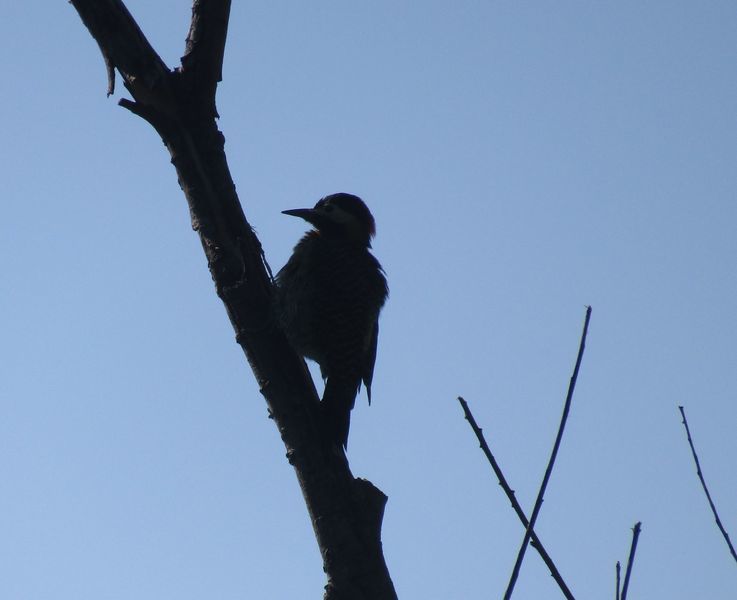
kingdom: Animalia
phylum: Chordata
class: Aves
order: Piciformes
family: Picidae
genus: Colaptes
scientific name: Colaptes melanochloros
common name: Green-barred woodpecker
